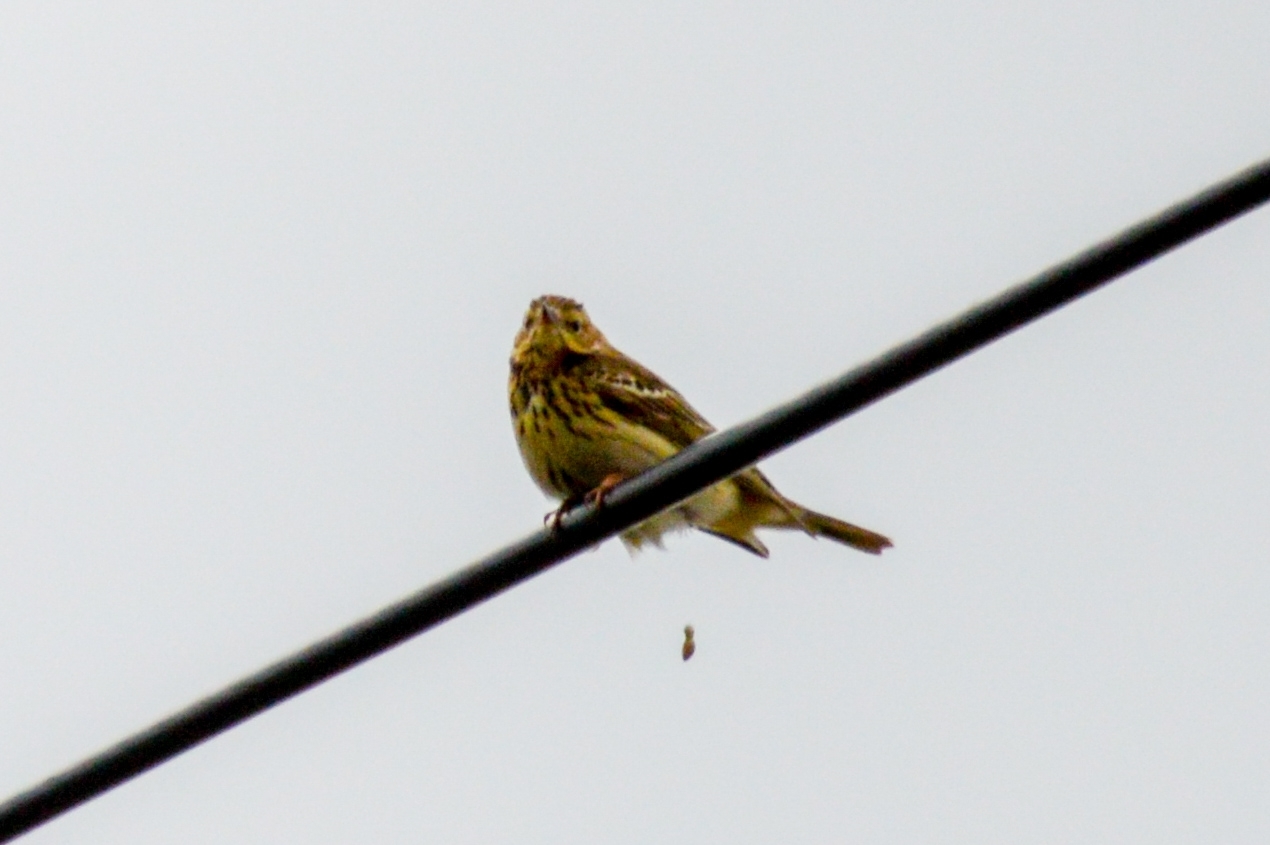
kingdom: Animalia
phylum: Chordata
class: Aves
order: Passeriformes
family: Motacillidae
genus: Anthus
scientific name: Anthus trivialis
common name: Tree pipit
